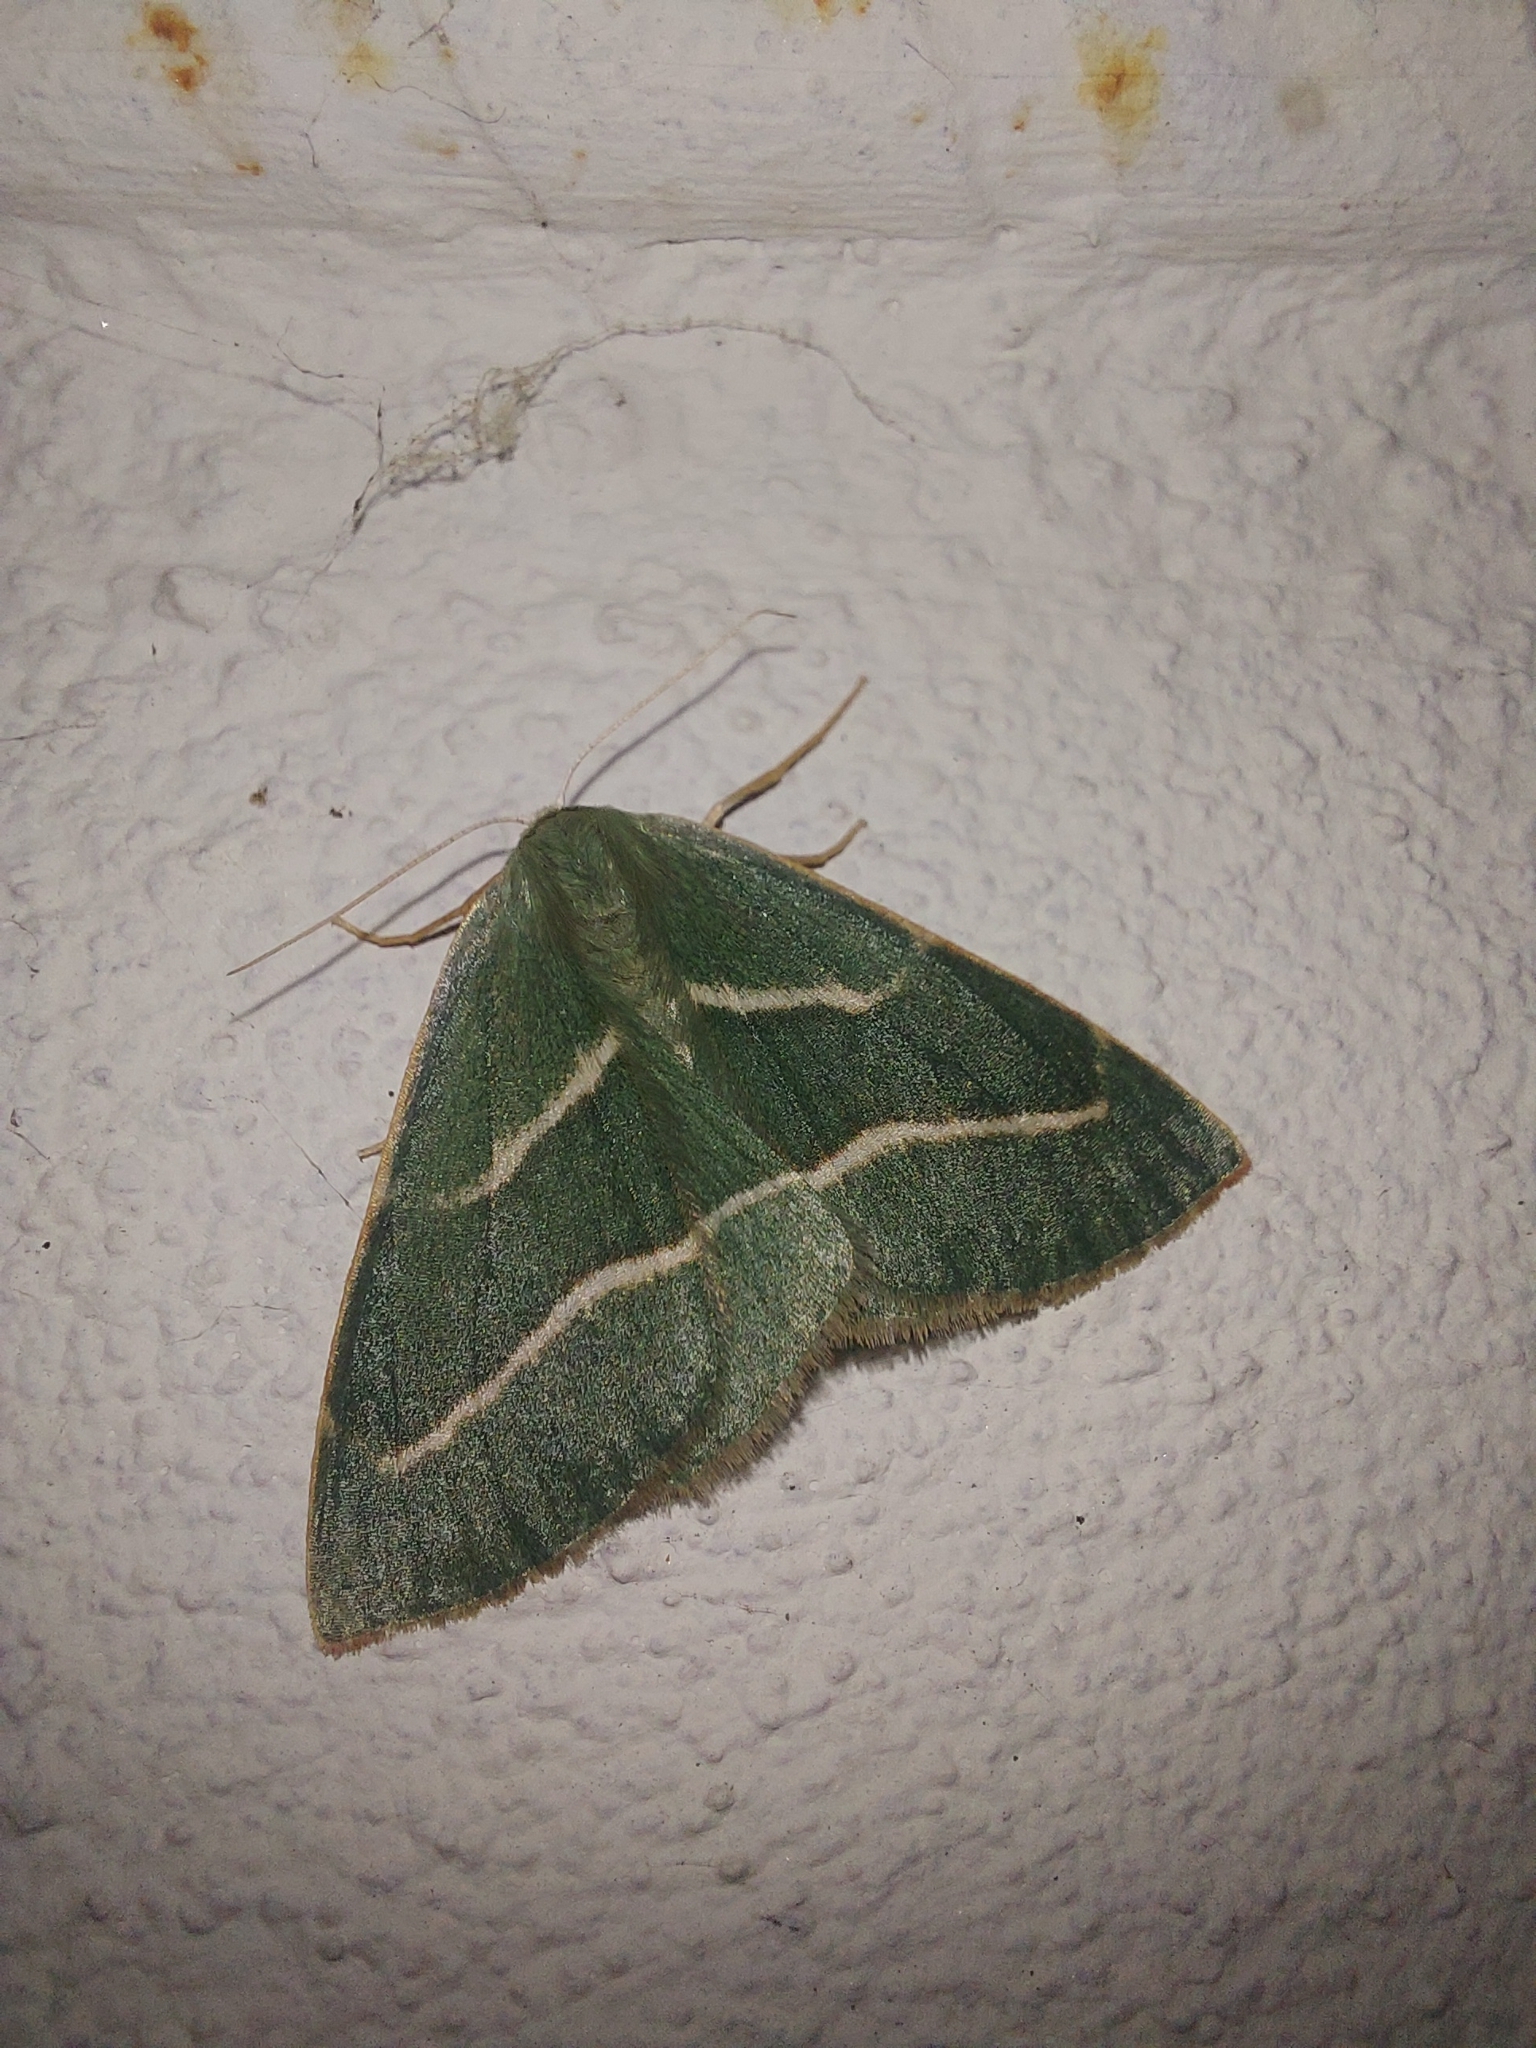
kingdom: Animalia
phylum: Arthropoda
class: Insecta
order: Lepidoptera
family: Geometridae
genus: Hylaea
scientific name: Hylaea fasciaria
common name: Barred red
